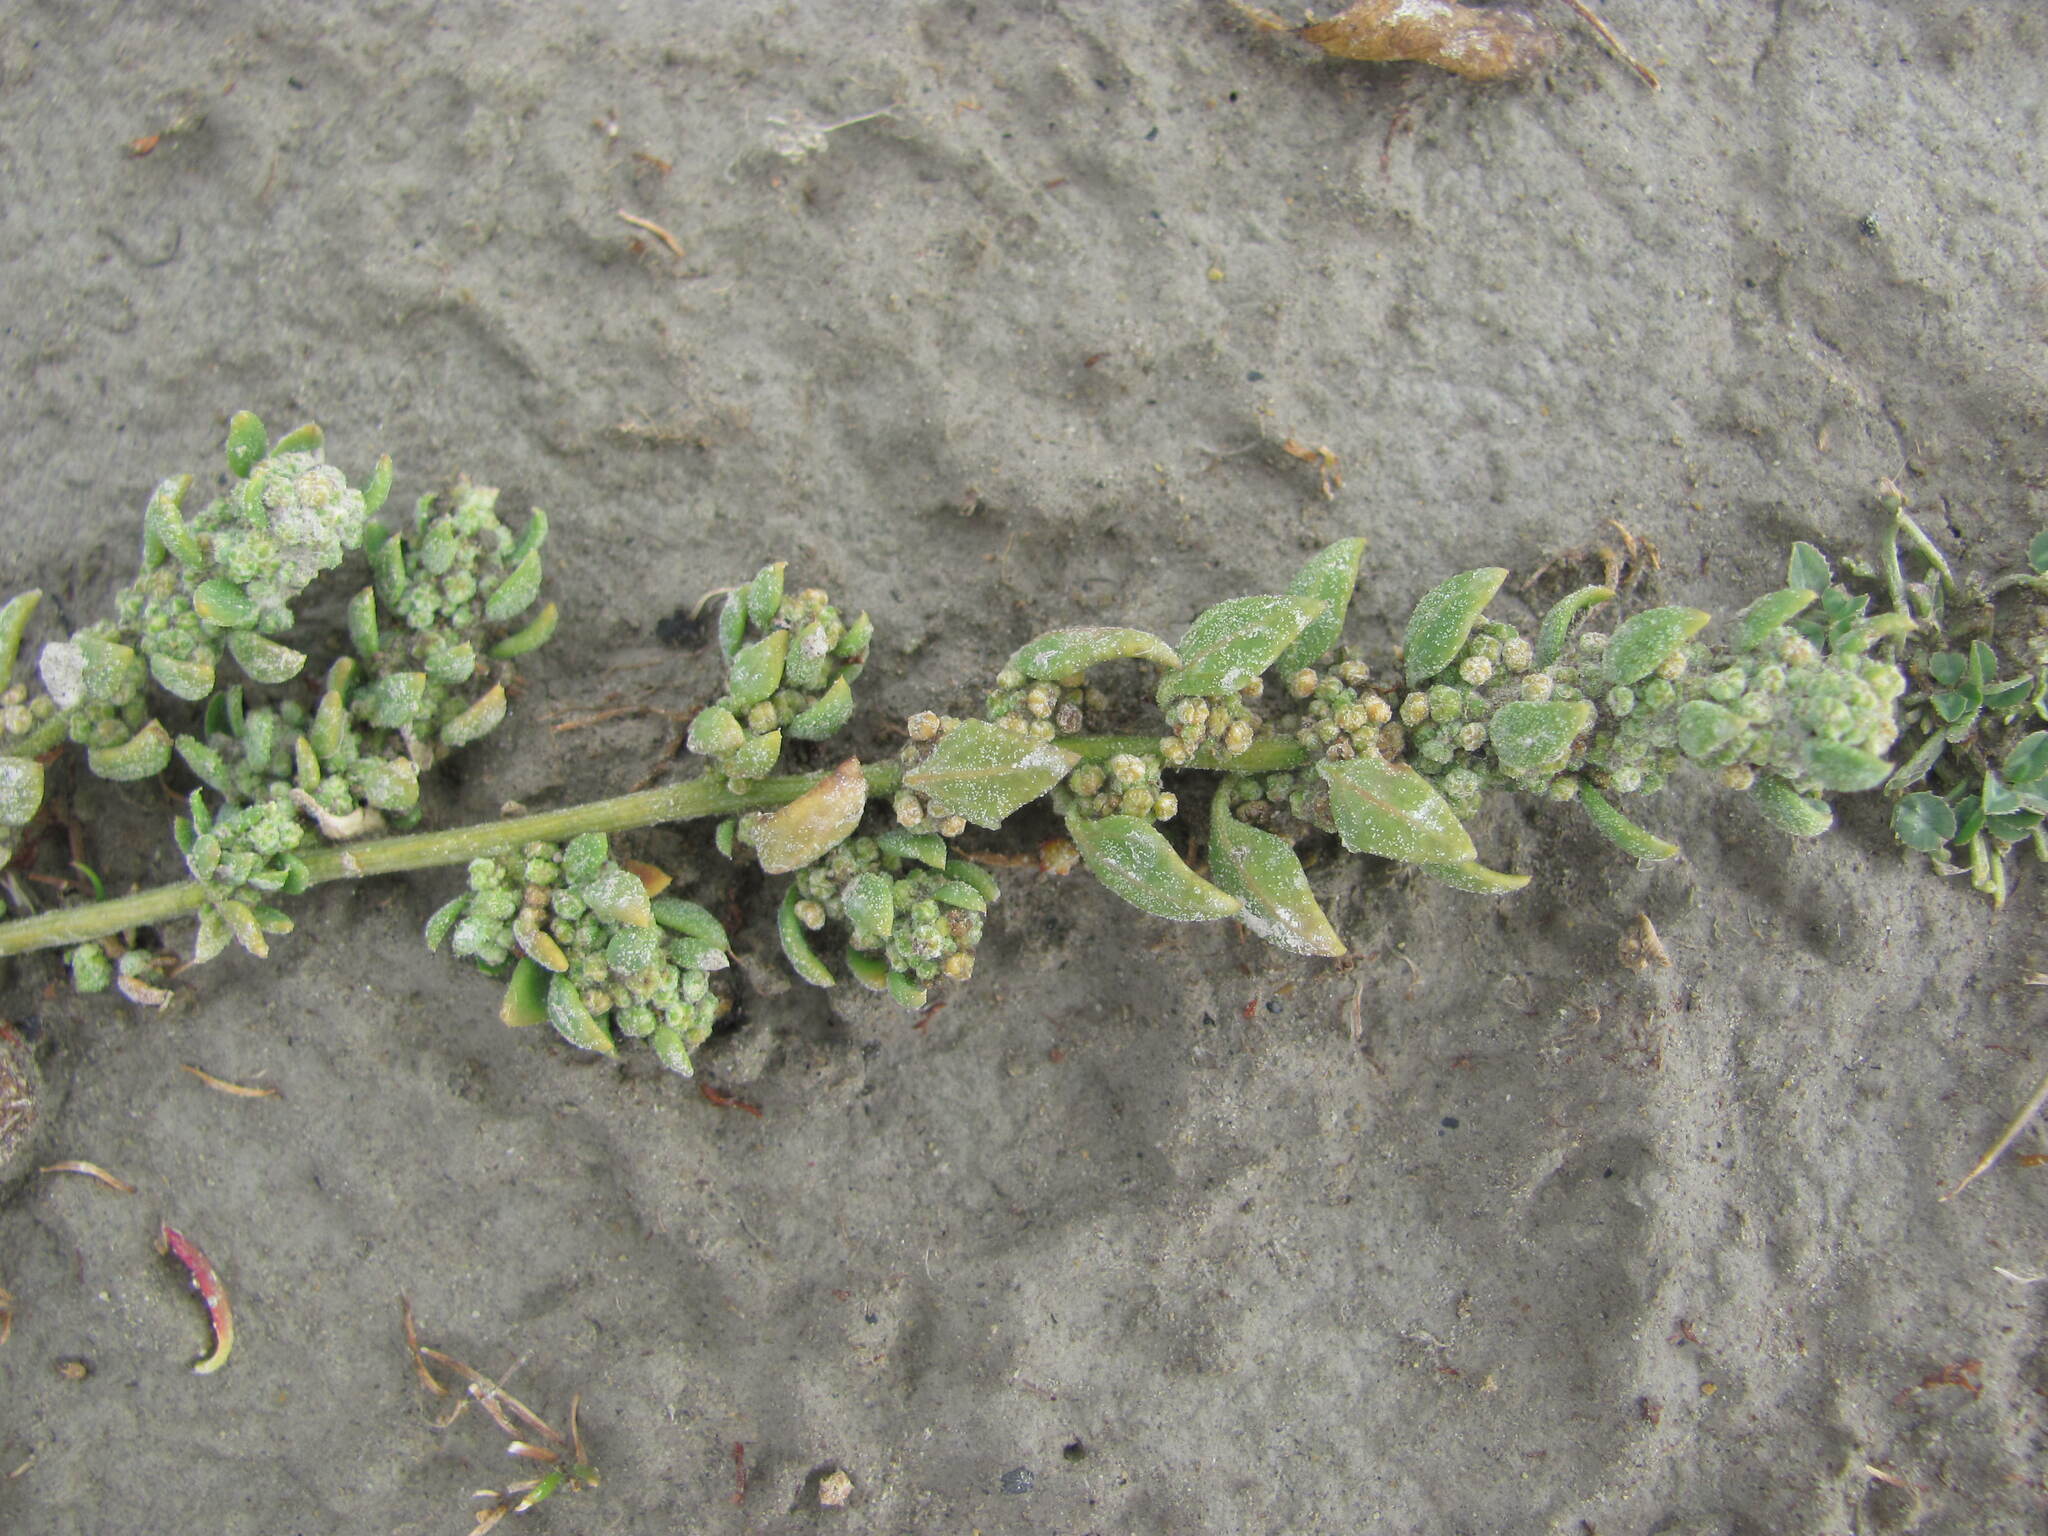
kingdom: Plantae
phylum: Tracheophyta
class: Magnoliopsida
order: Caryophyllales
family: Amaranthaceae
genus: Chenopodium
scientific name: Chenopodium detestans
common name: Fish-guts
